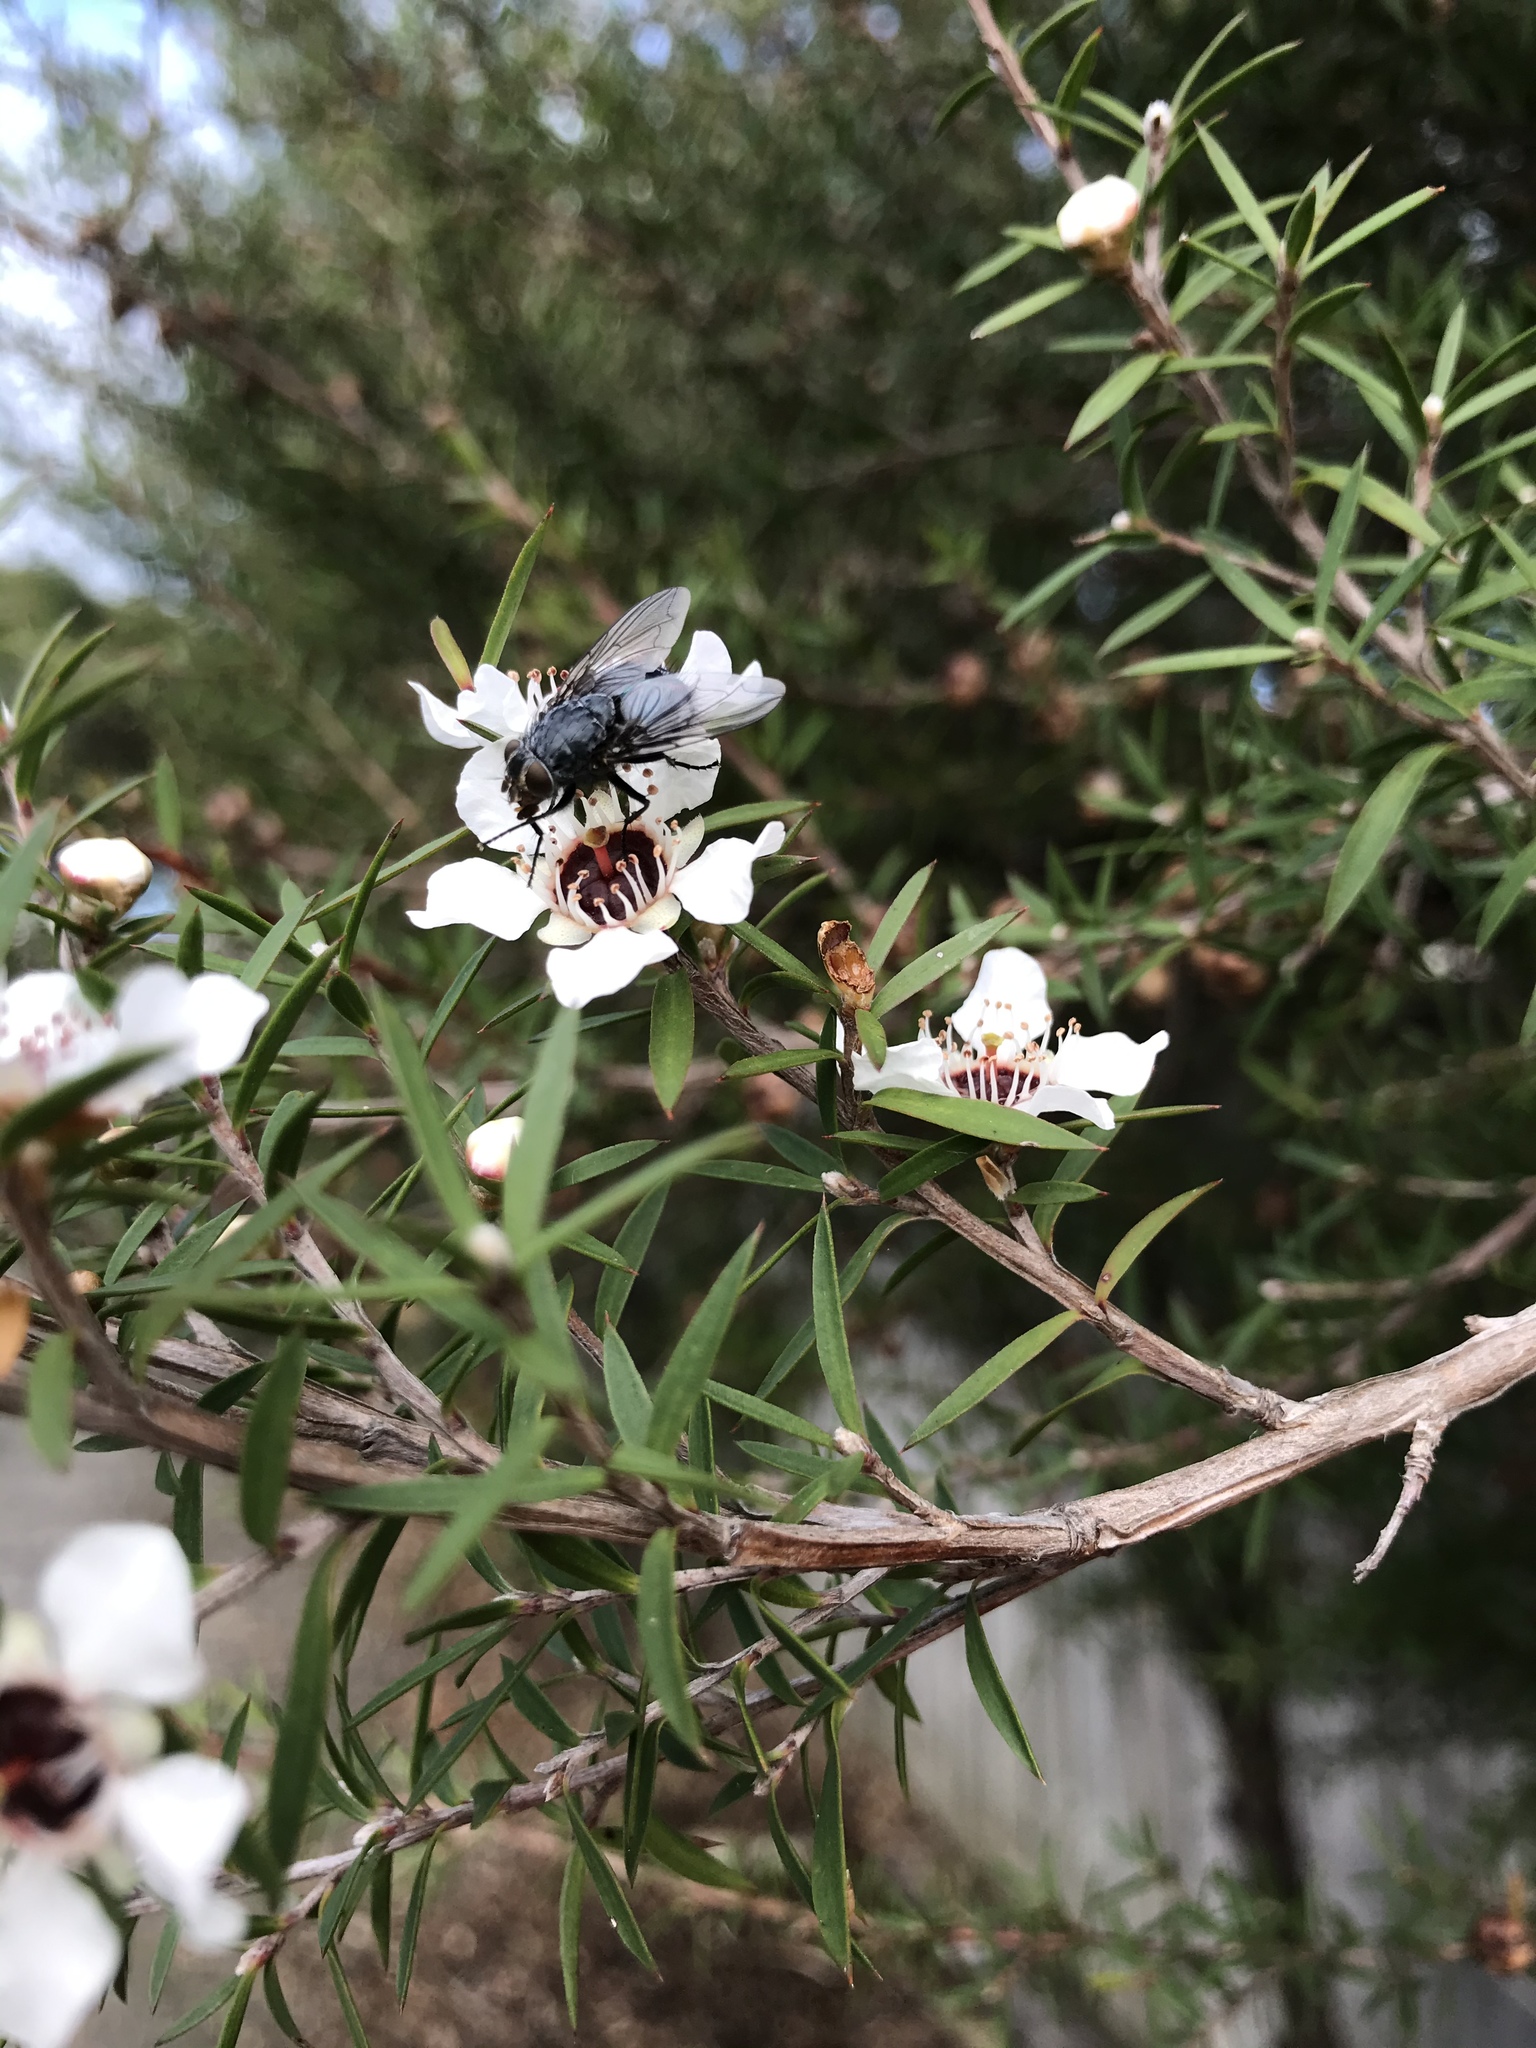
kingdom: Animalia
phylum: Arthropoda
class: Insecta
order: Diptera
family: Calliphoridae
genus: Calliphora
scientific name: Calliphora vicina
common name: Common blow flie
